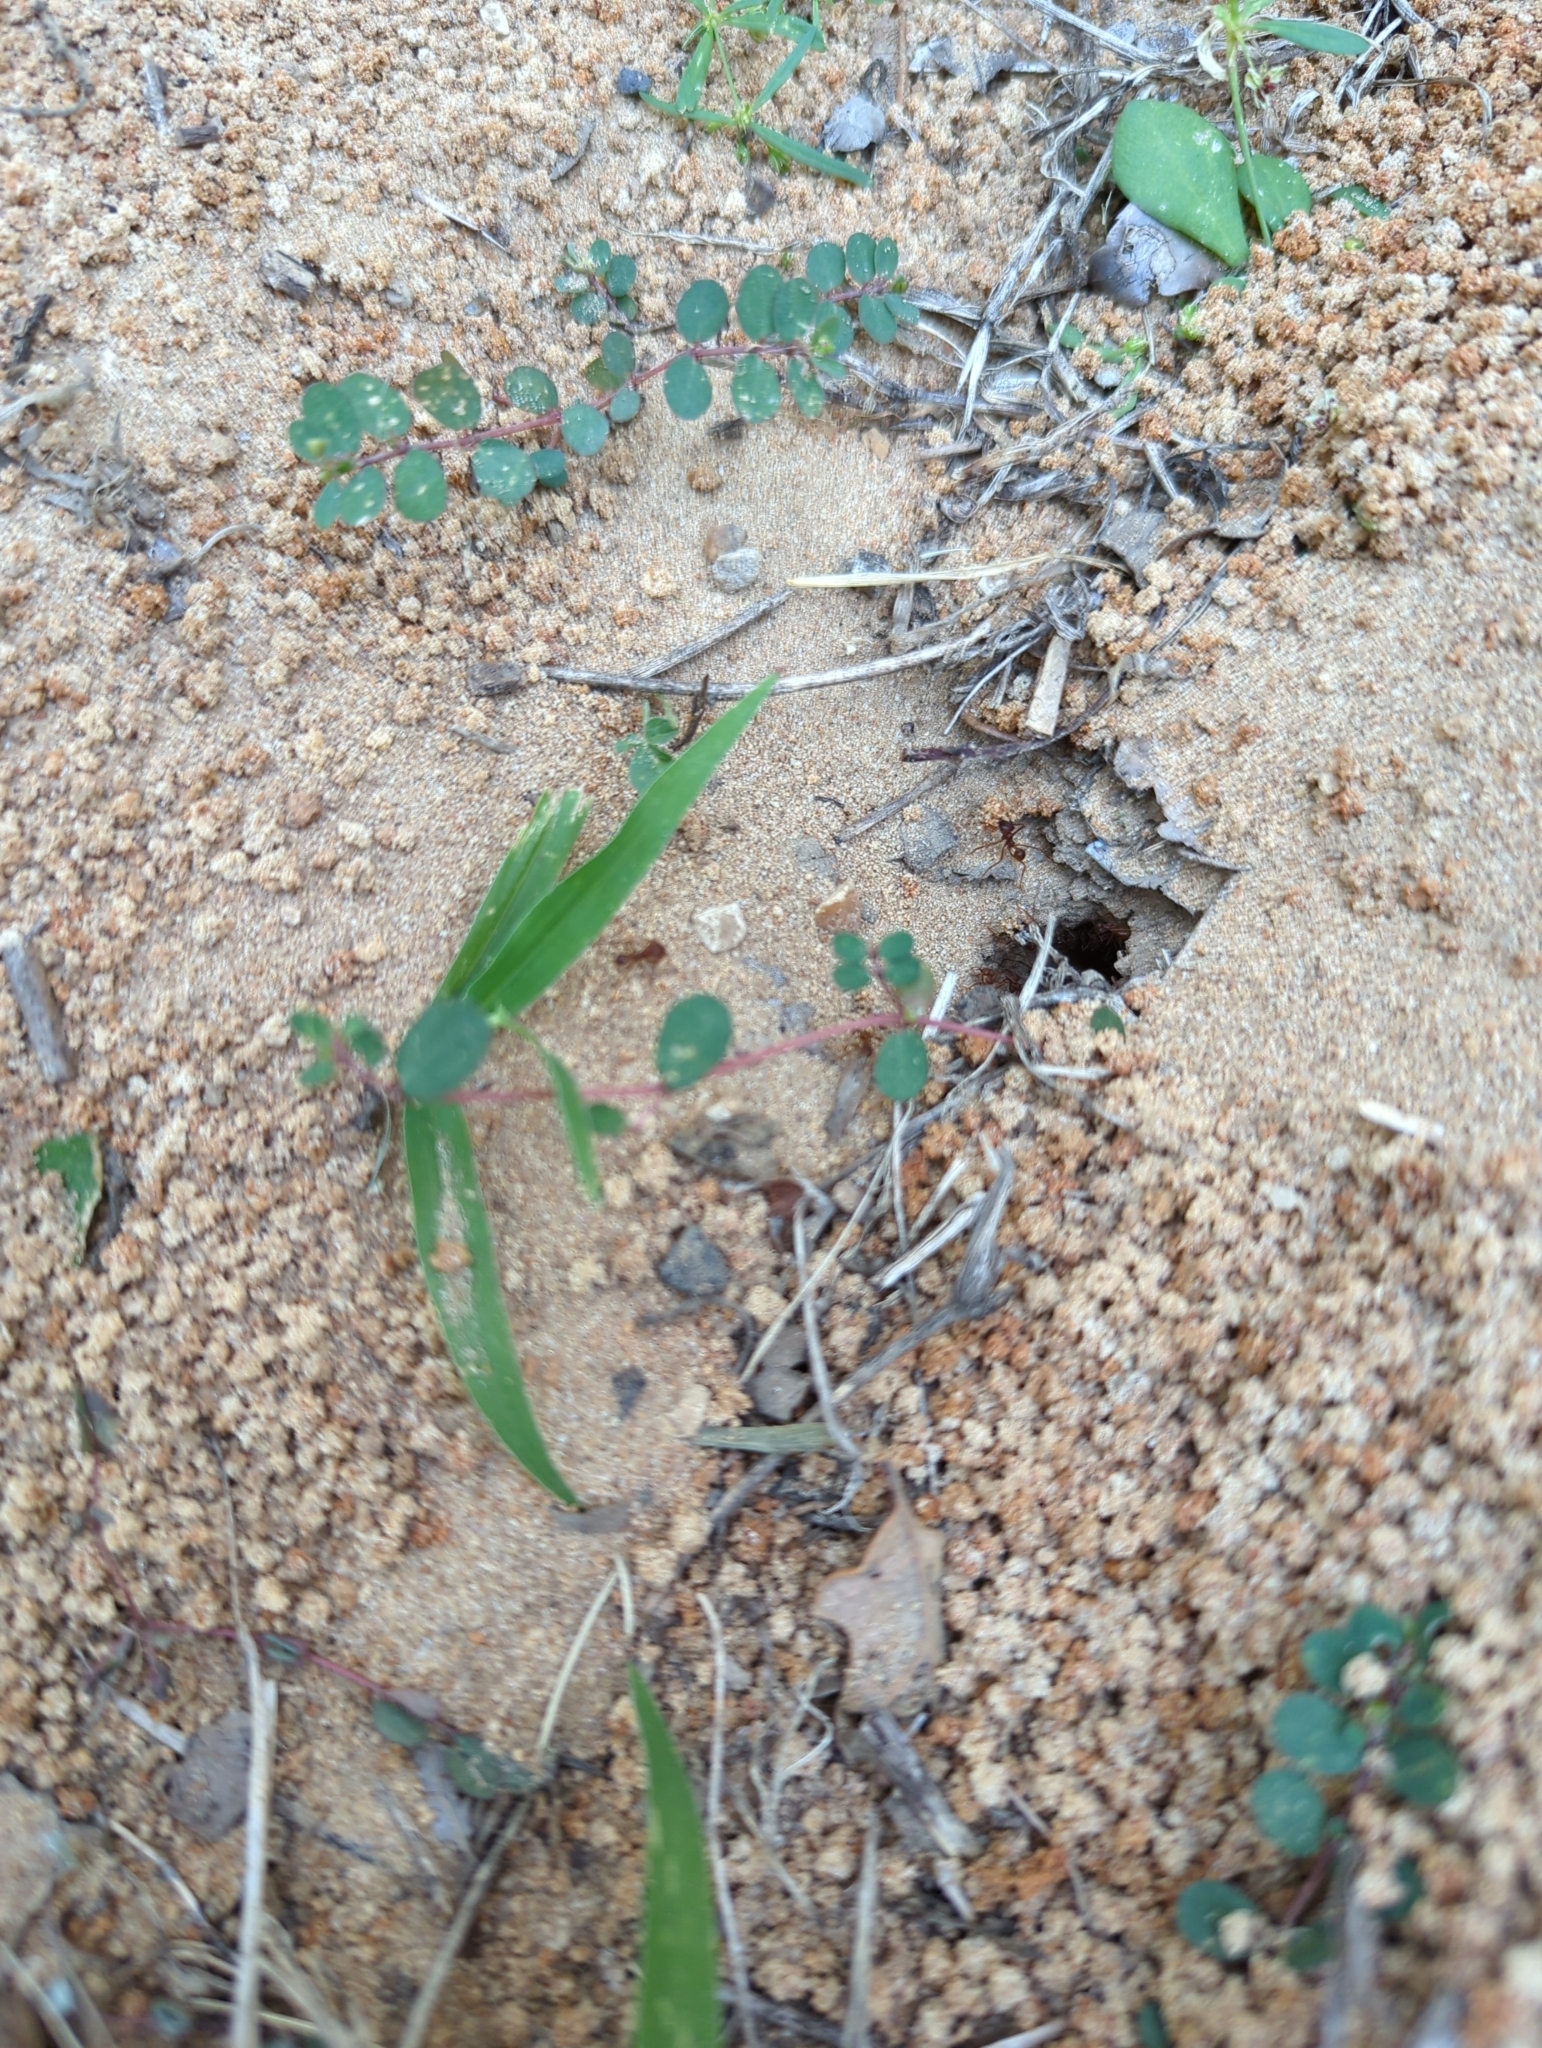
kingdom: Animalia
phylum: Arthropoda
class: Insecta
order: Hymenoptera
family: Formicidae
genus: Atta
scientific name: Atta texana
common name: Texas leafcutting ant
